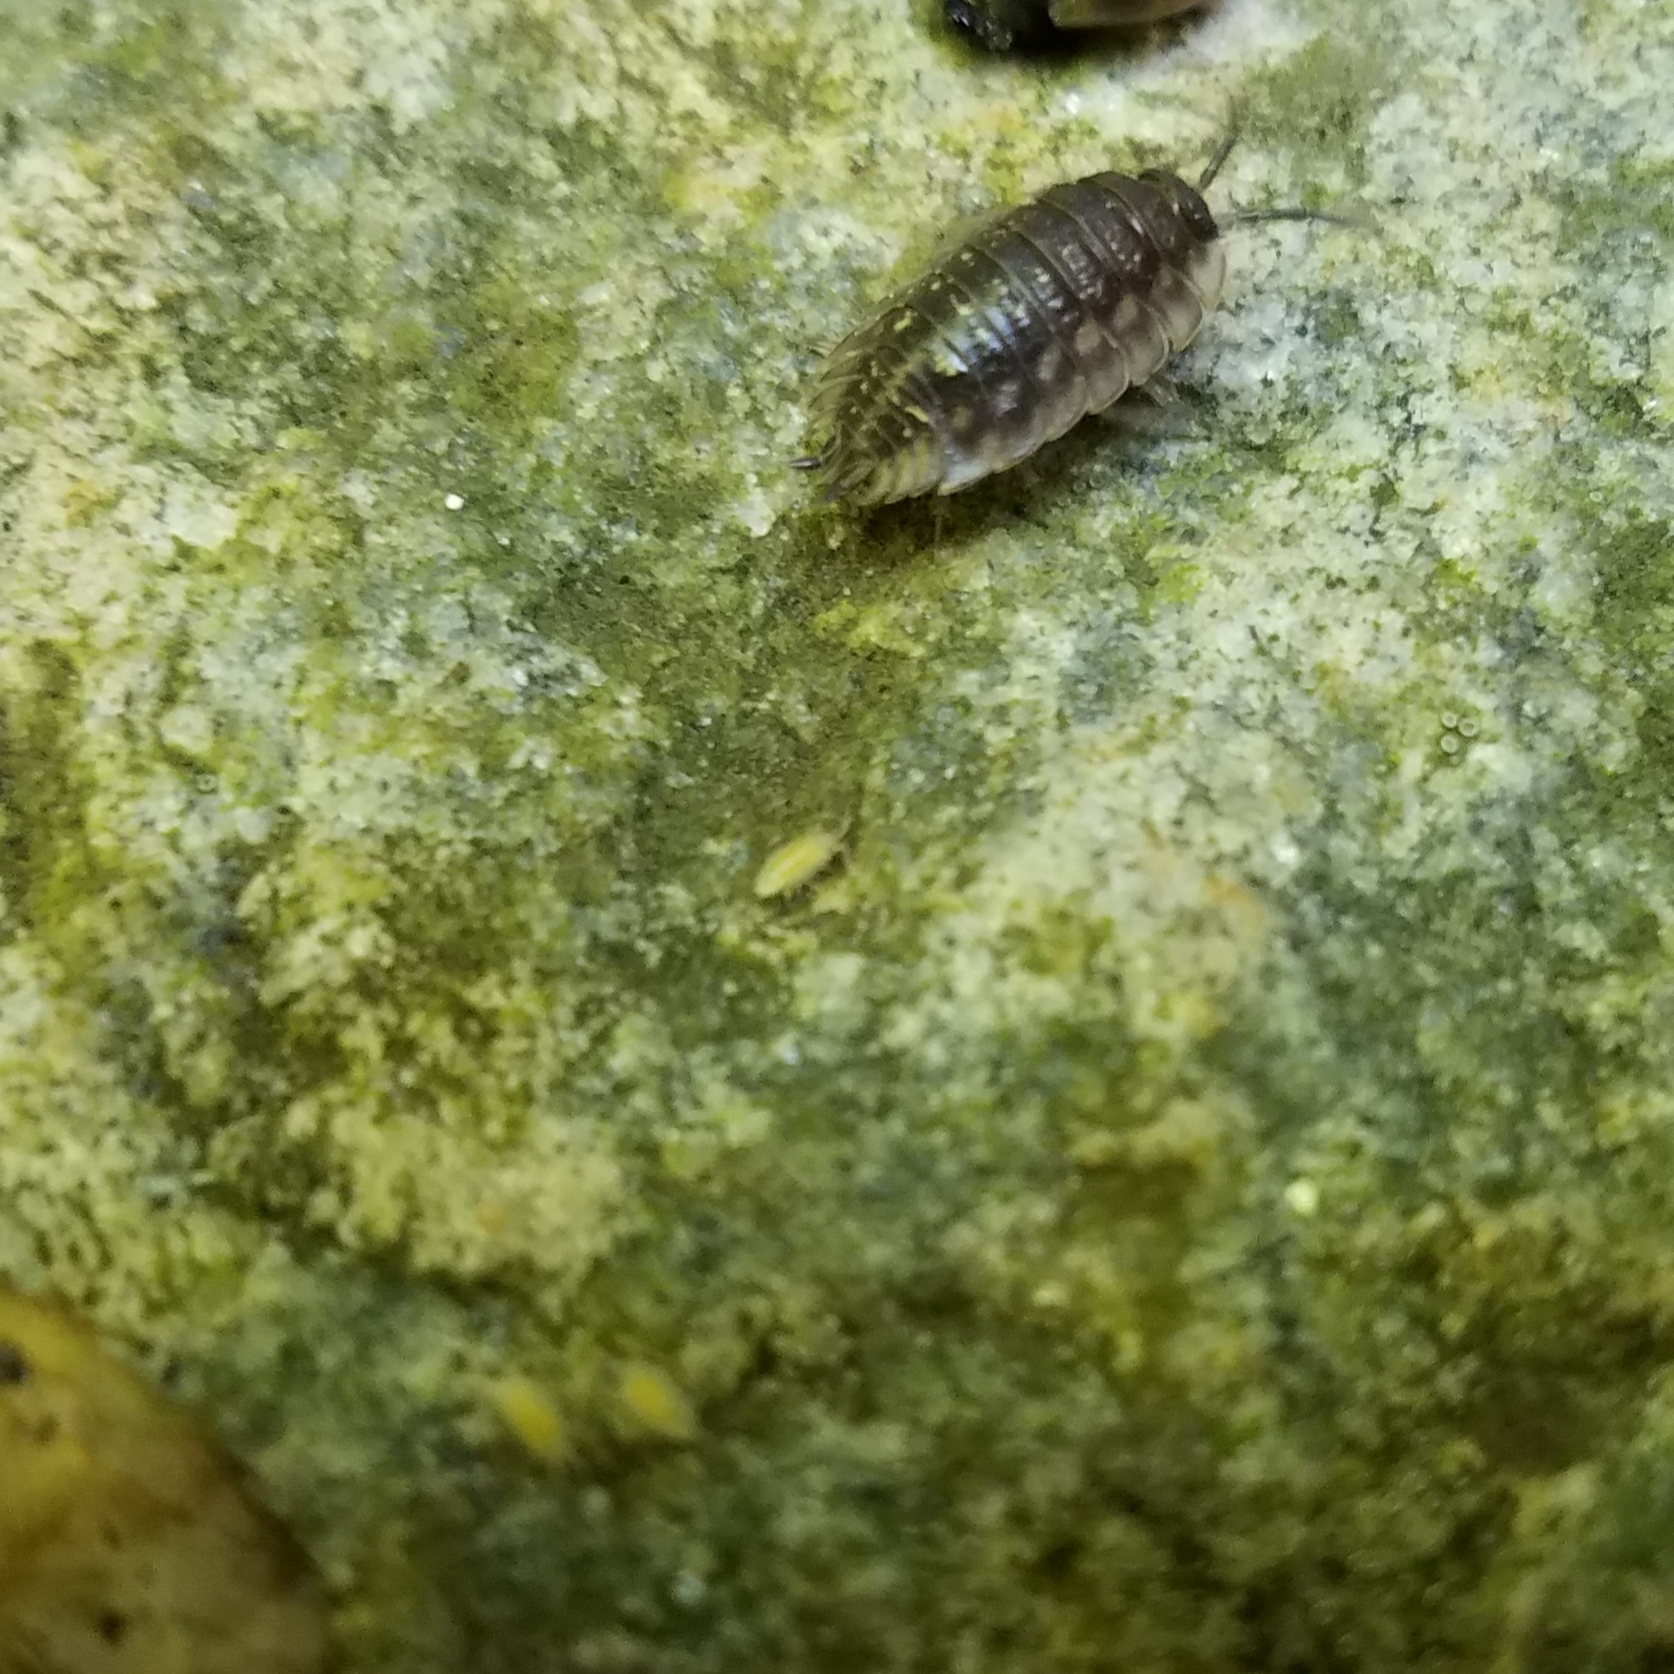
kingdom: Animalia
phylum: Arthropoda
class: Malacostraca
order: Isopoda
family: Oniscidae
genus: Oniscus
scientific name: Oniscus asellus
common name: Common shiny woodlouse
